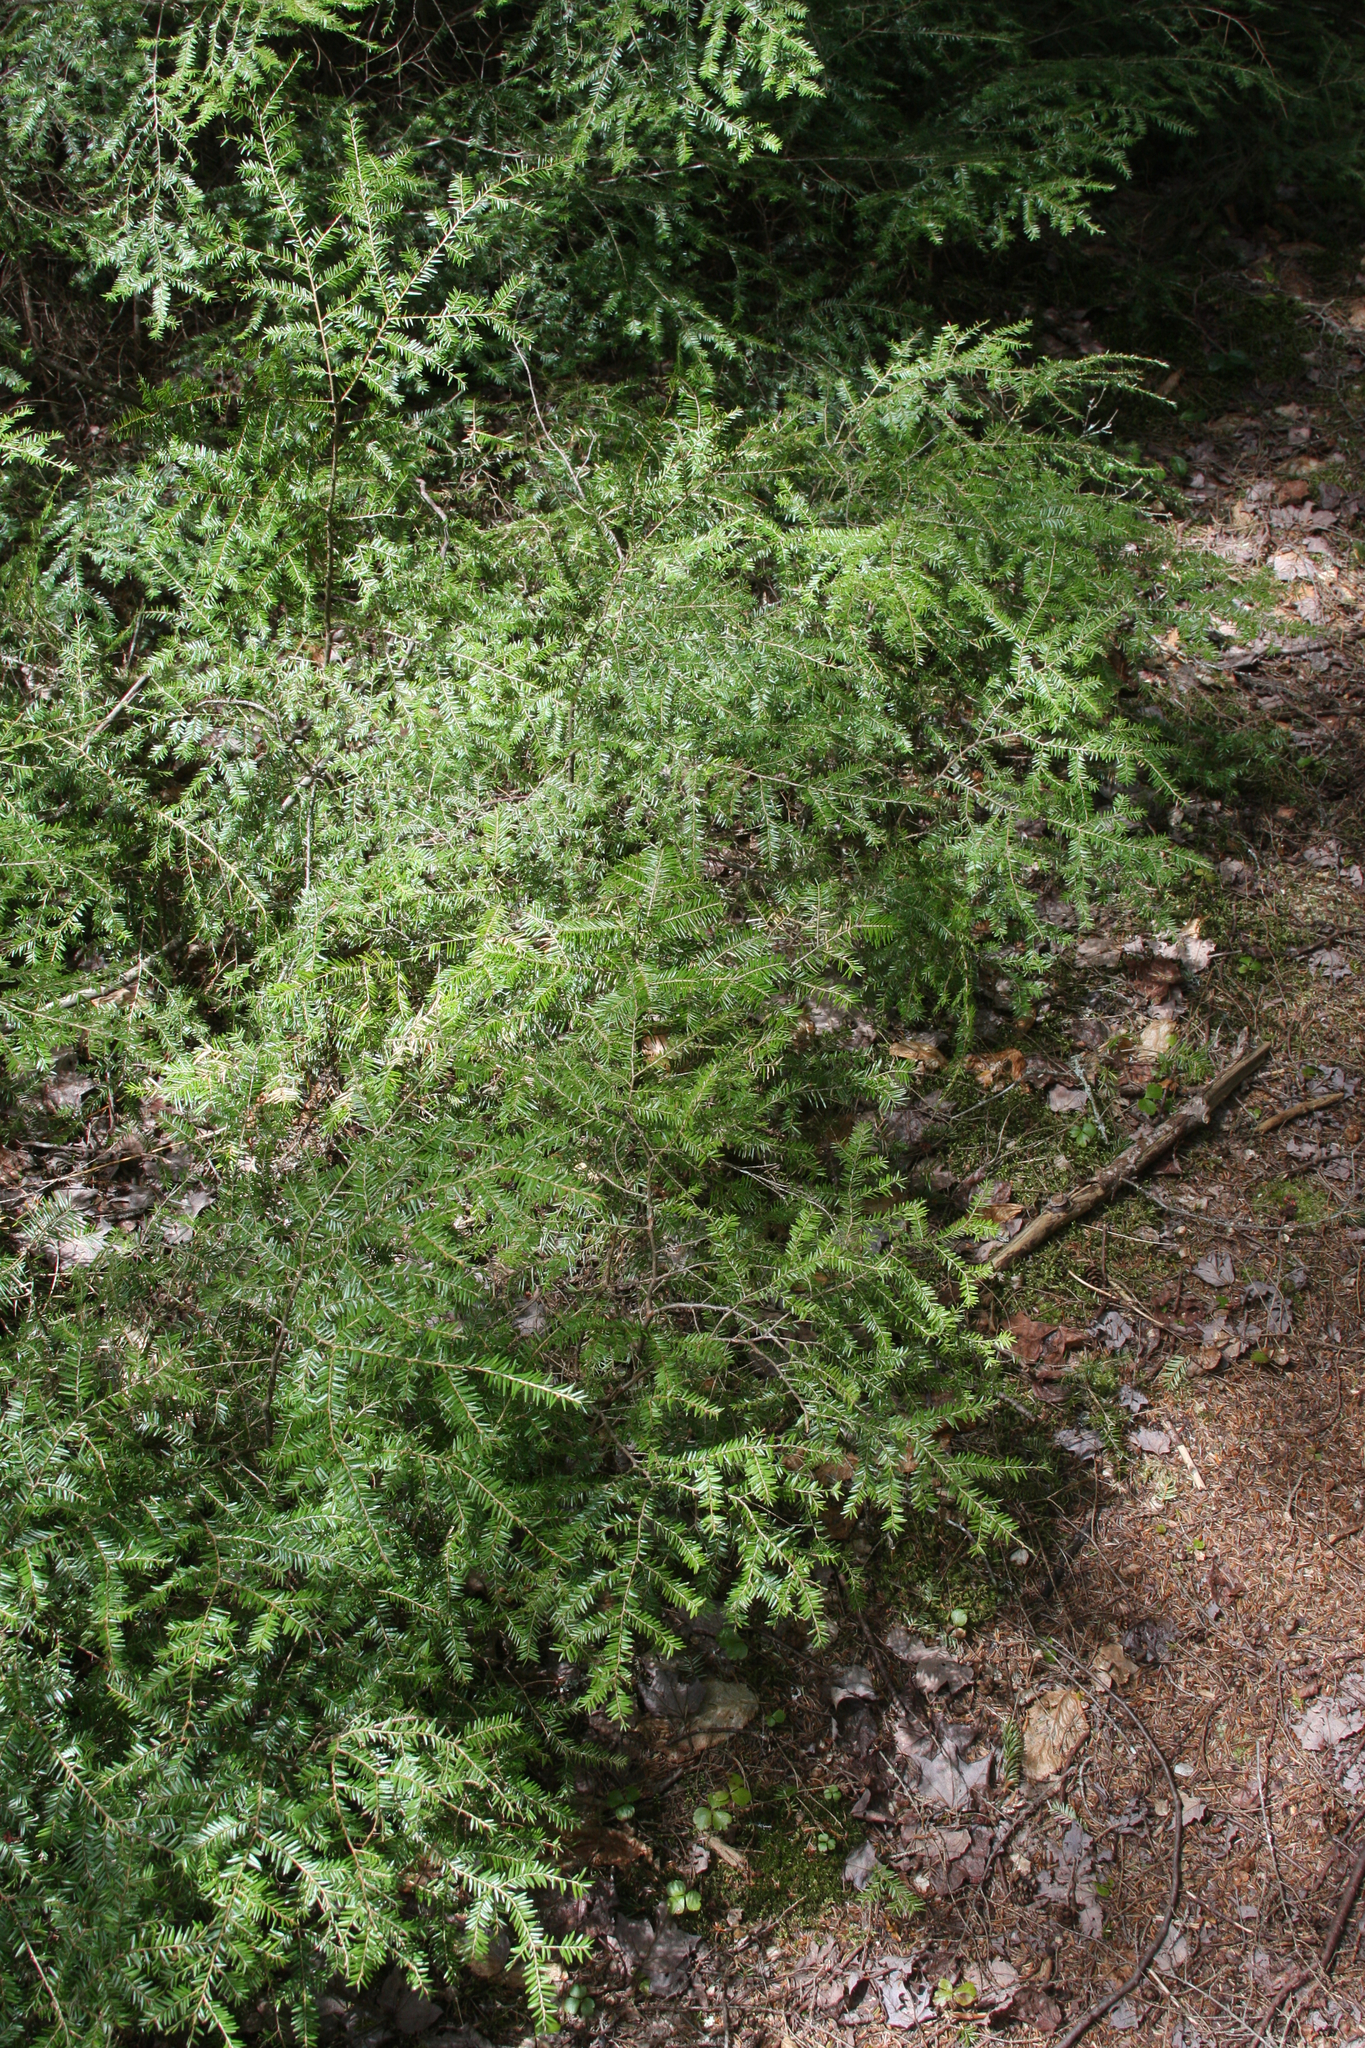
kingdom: Plantae
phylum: Tracheophyta
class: Pinopsida
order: Pinales
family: Pinaceae
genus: Tsuga
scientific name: Tsuga canadensis
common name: Eastern hemlock
